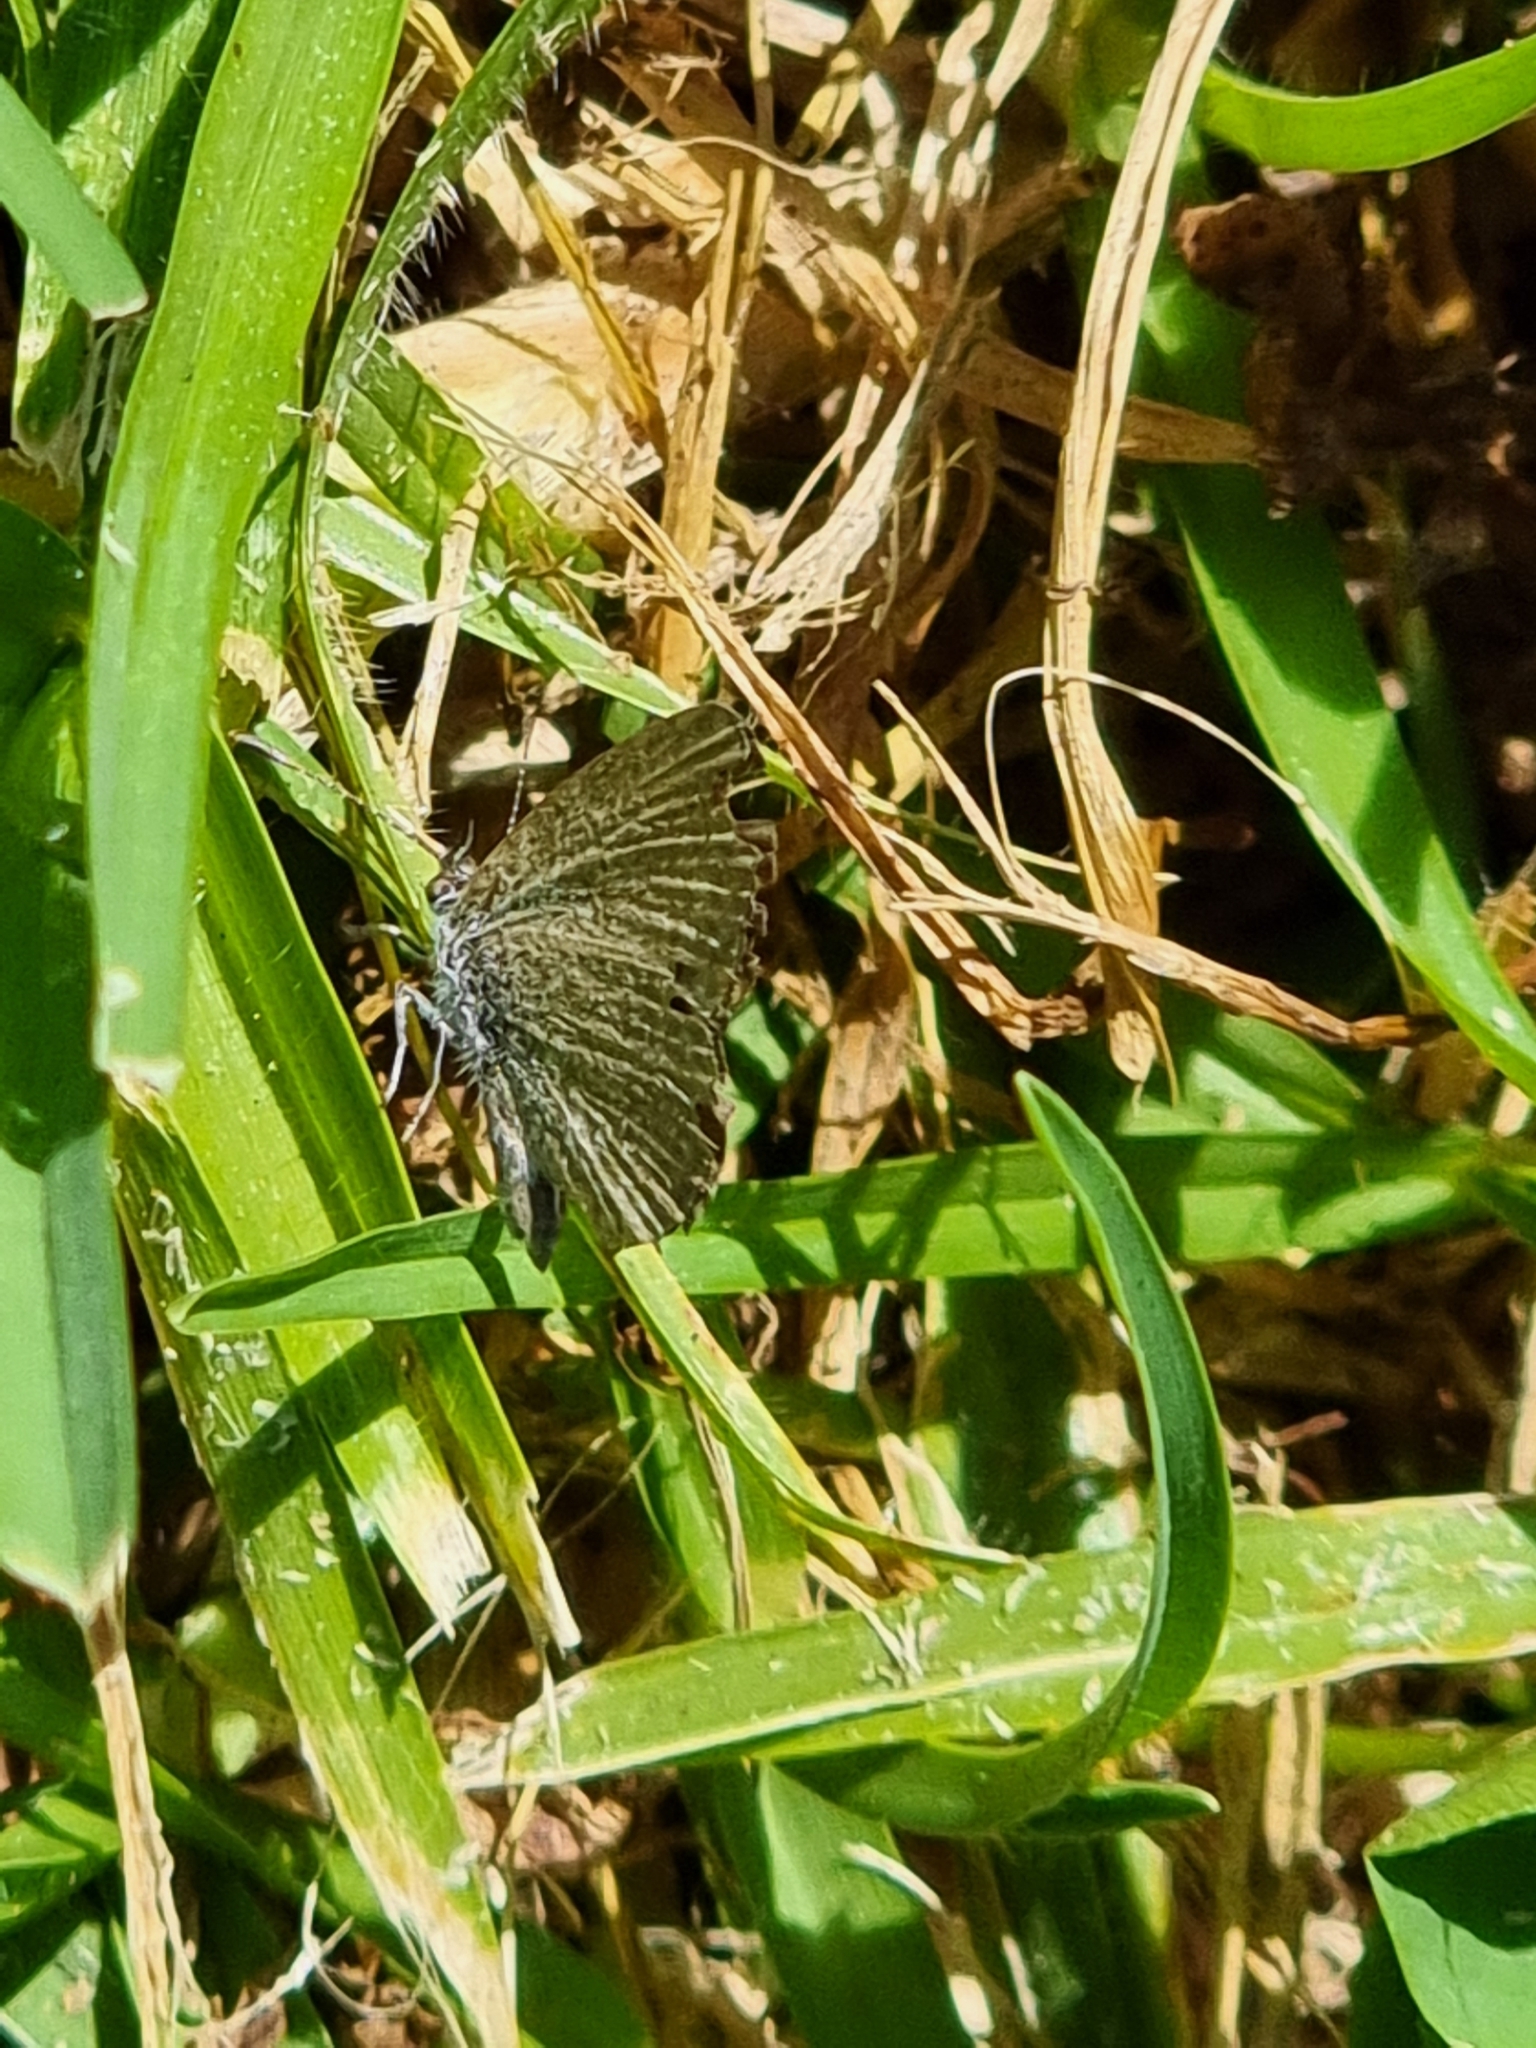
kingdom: Animalia
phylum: Arthropoda
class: Insecta
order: Lepidoptera
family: Lycaenidae
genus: Zizina
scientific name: Zizina otis
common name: Lesser grass blue
